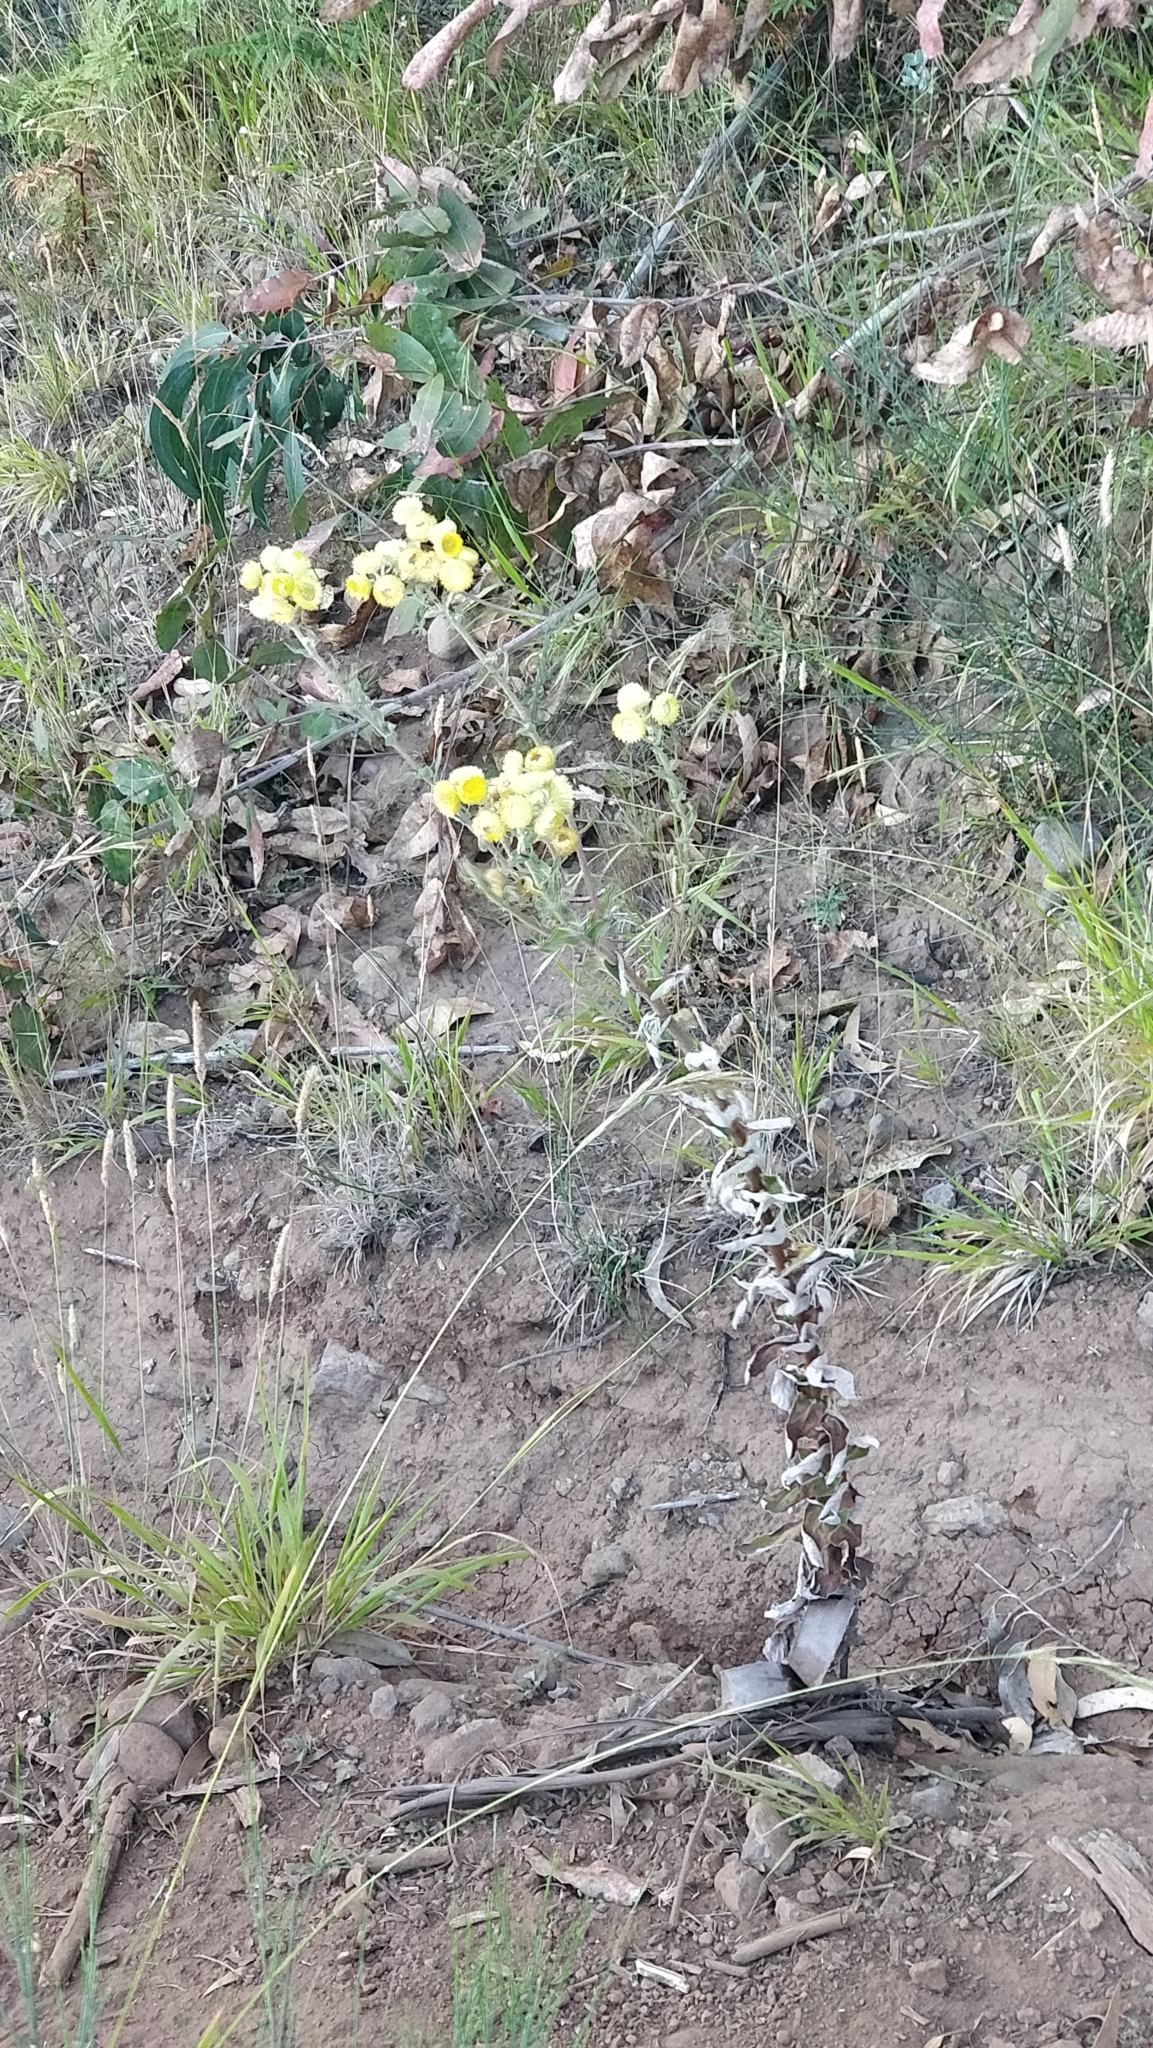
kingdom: Plantae
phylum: Tracheophyta
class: Magnoliopsida
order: Asterales
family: Asteraceae
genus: Helichrysum
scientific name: Helichrysum foetidum
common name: Stinking everlasting
